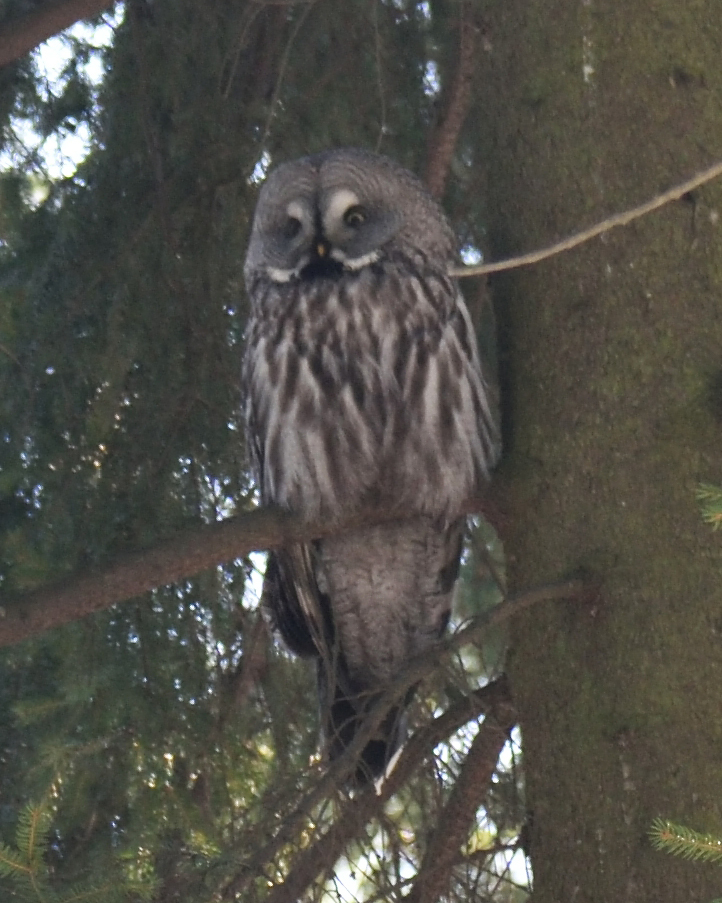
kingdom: Animalia
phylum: Chordata
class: Aves
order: Strigiformes
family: Strigidae
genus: Strix
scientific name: Strix nebulosa
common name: Great grey owl
